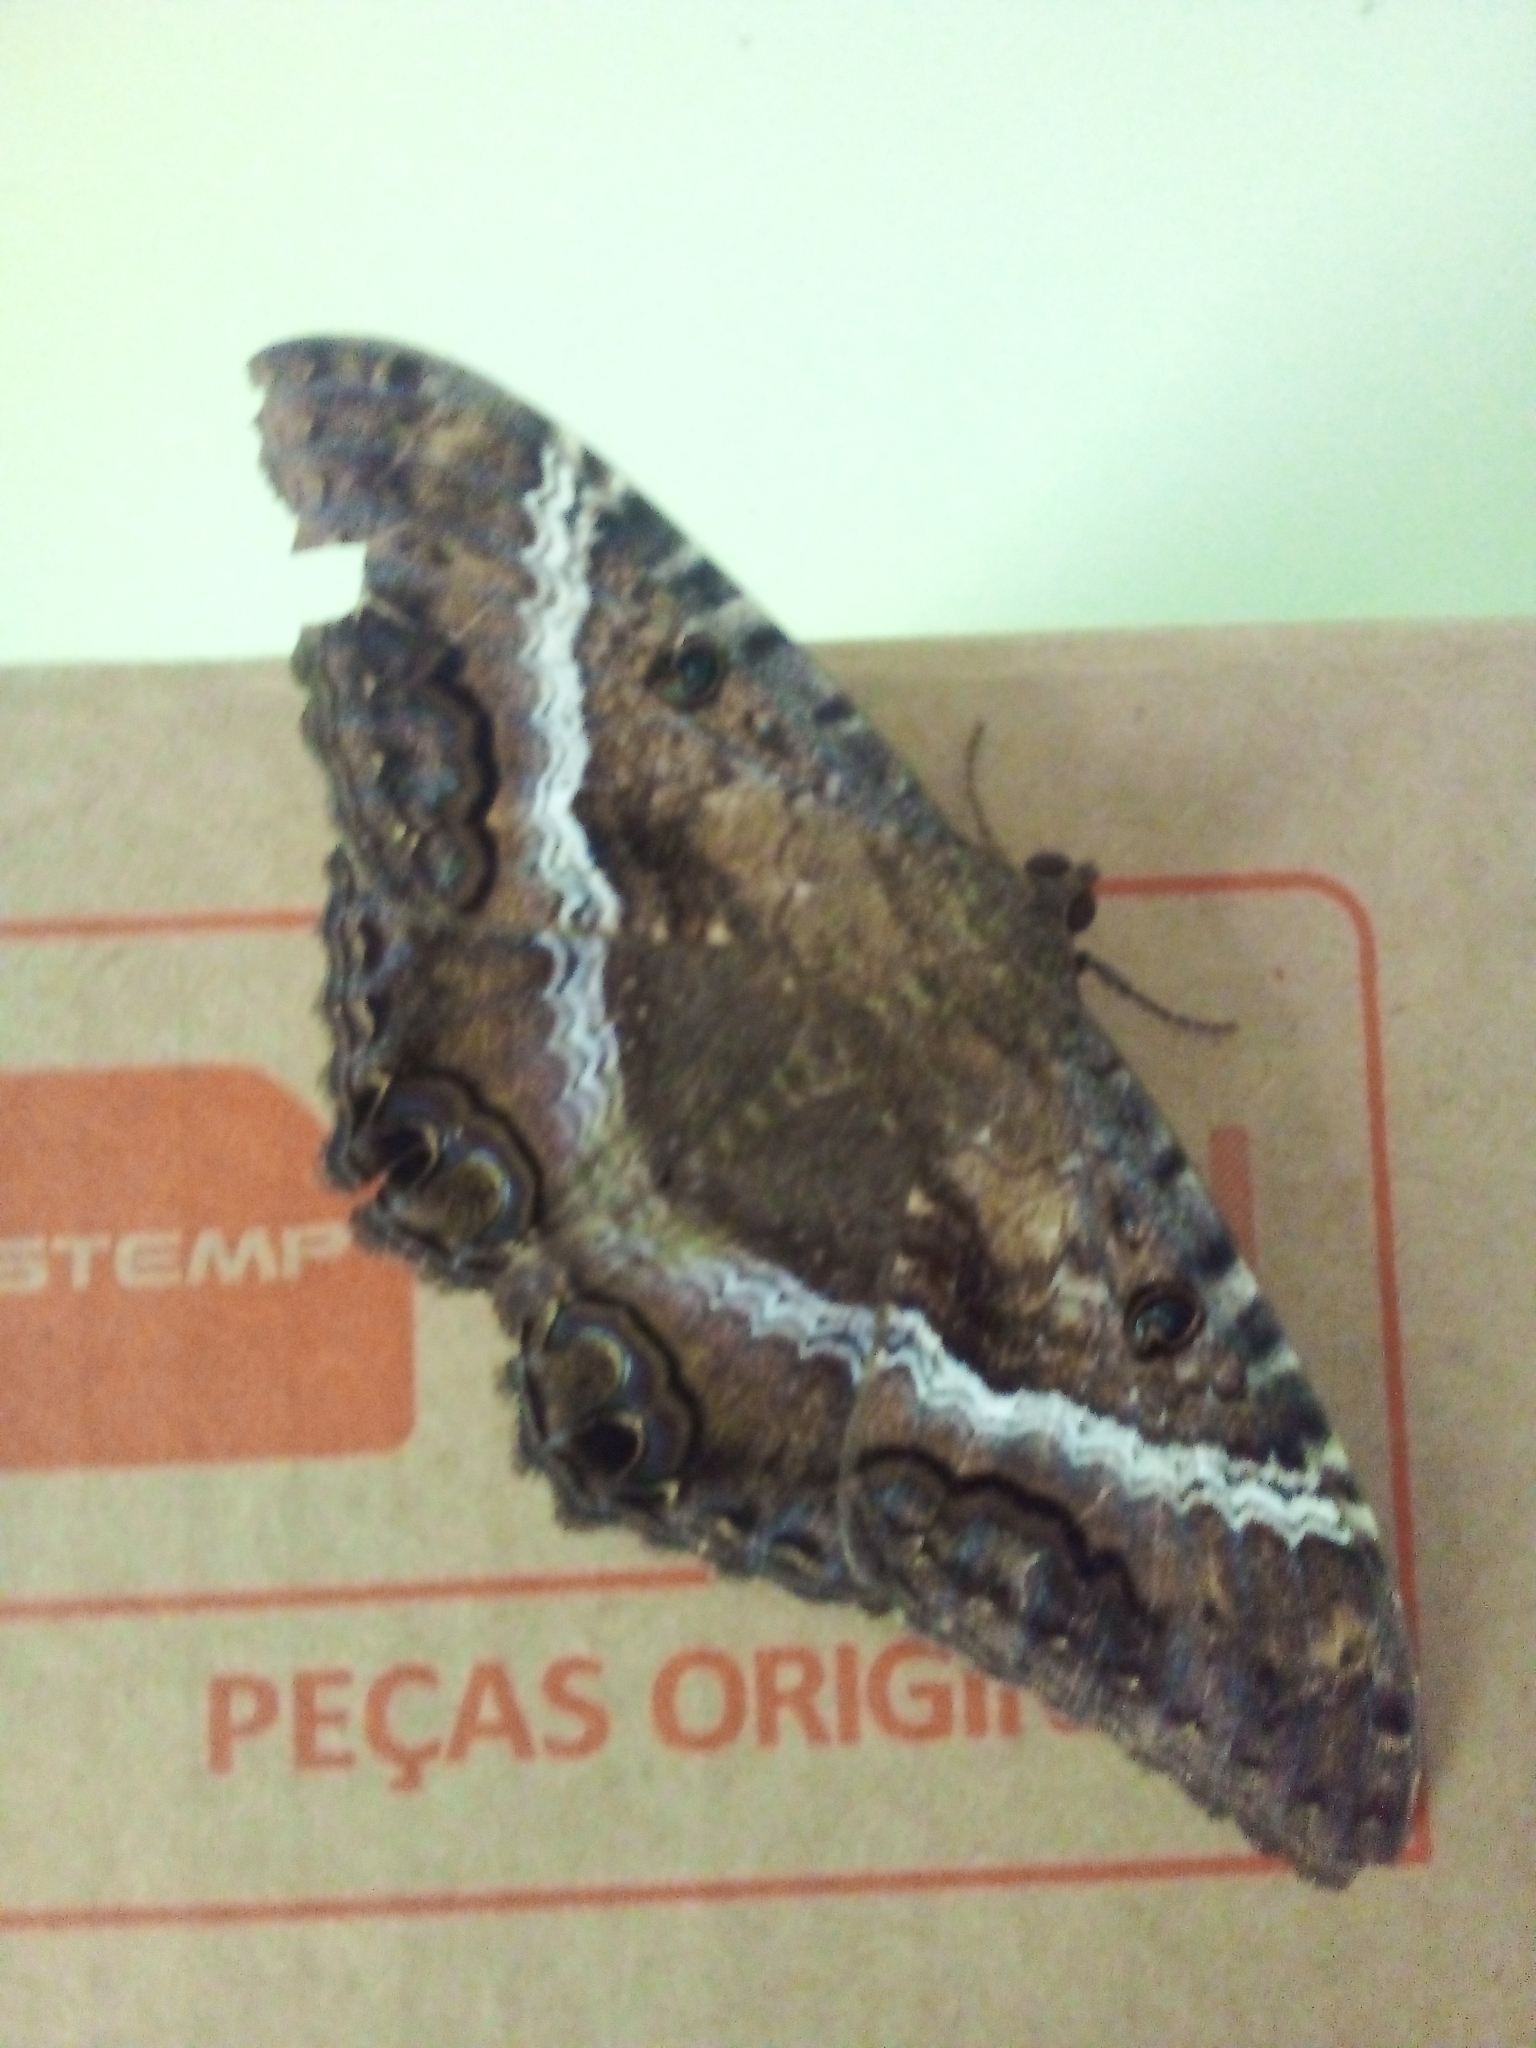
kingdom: Animalia
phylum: Arthropoda
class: Insecta
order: Lepidoptera
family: Erebidae
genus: Ascalapha
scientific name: Ascalapha odorata
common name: Black witch
